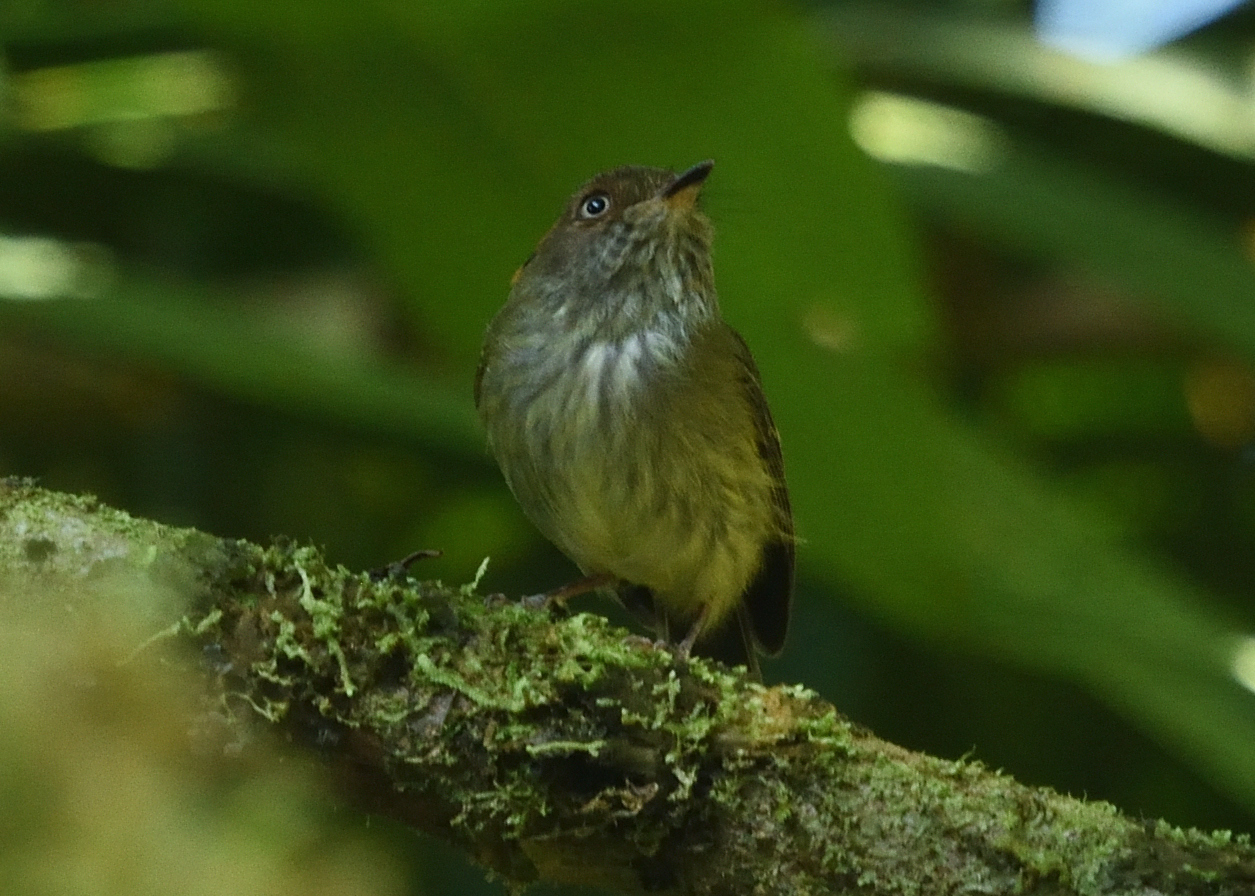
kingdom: Animalia
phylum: Chordata
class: Aves
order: Passeriformes
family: Tyrannidae
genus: Lophotriccus
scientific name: Lophotriccus pileatus
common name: Scale-crested pygmy-tyrant
